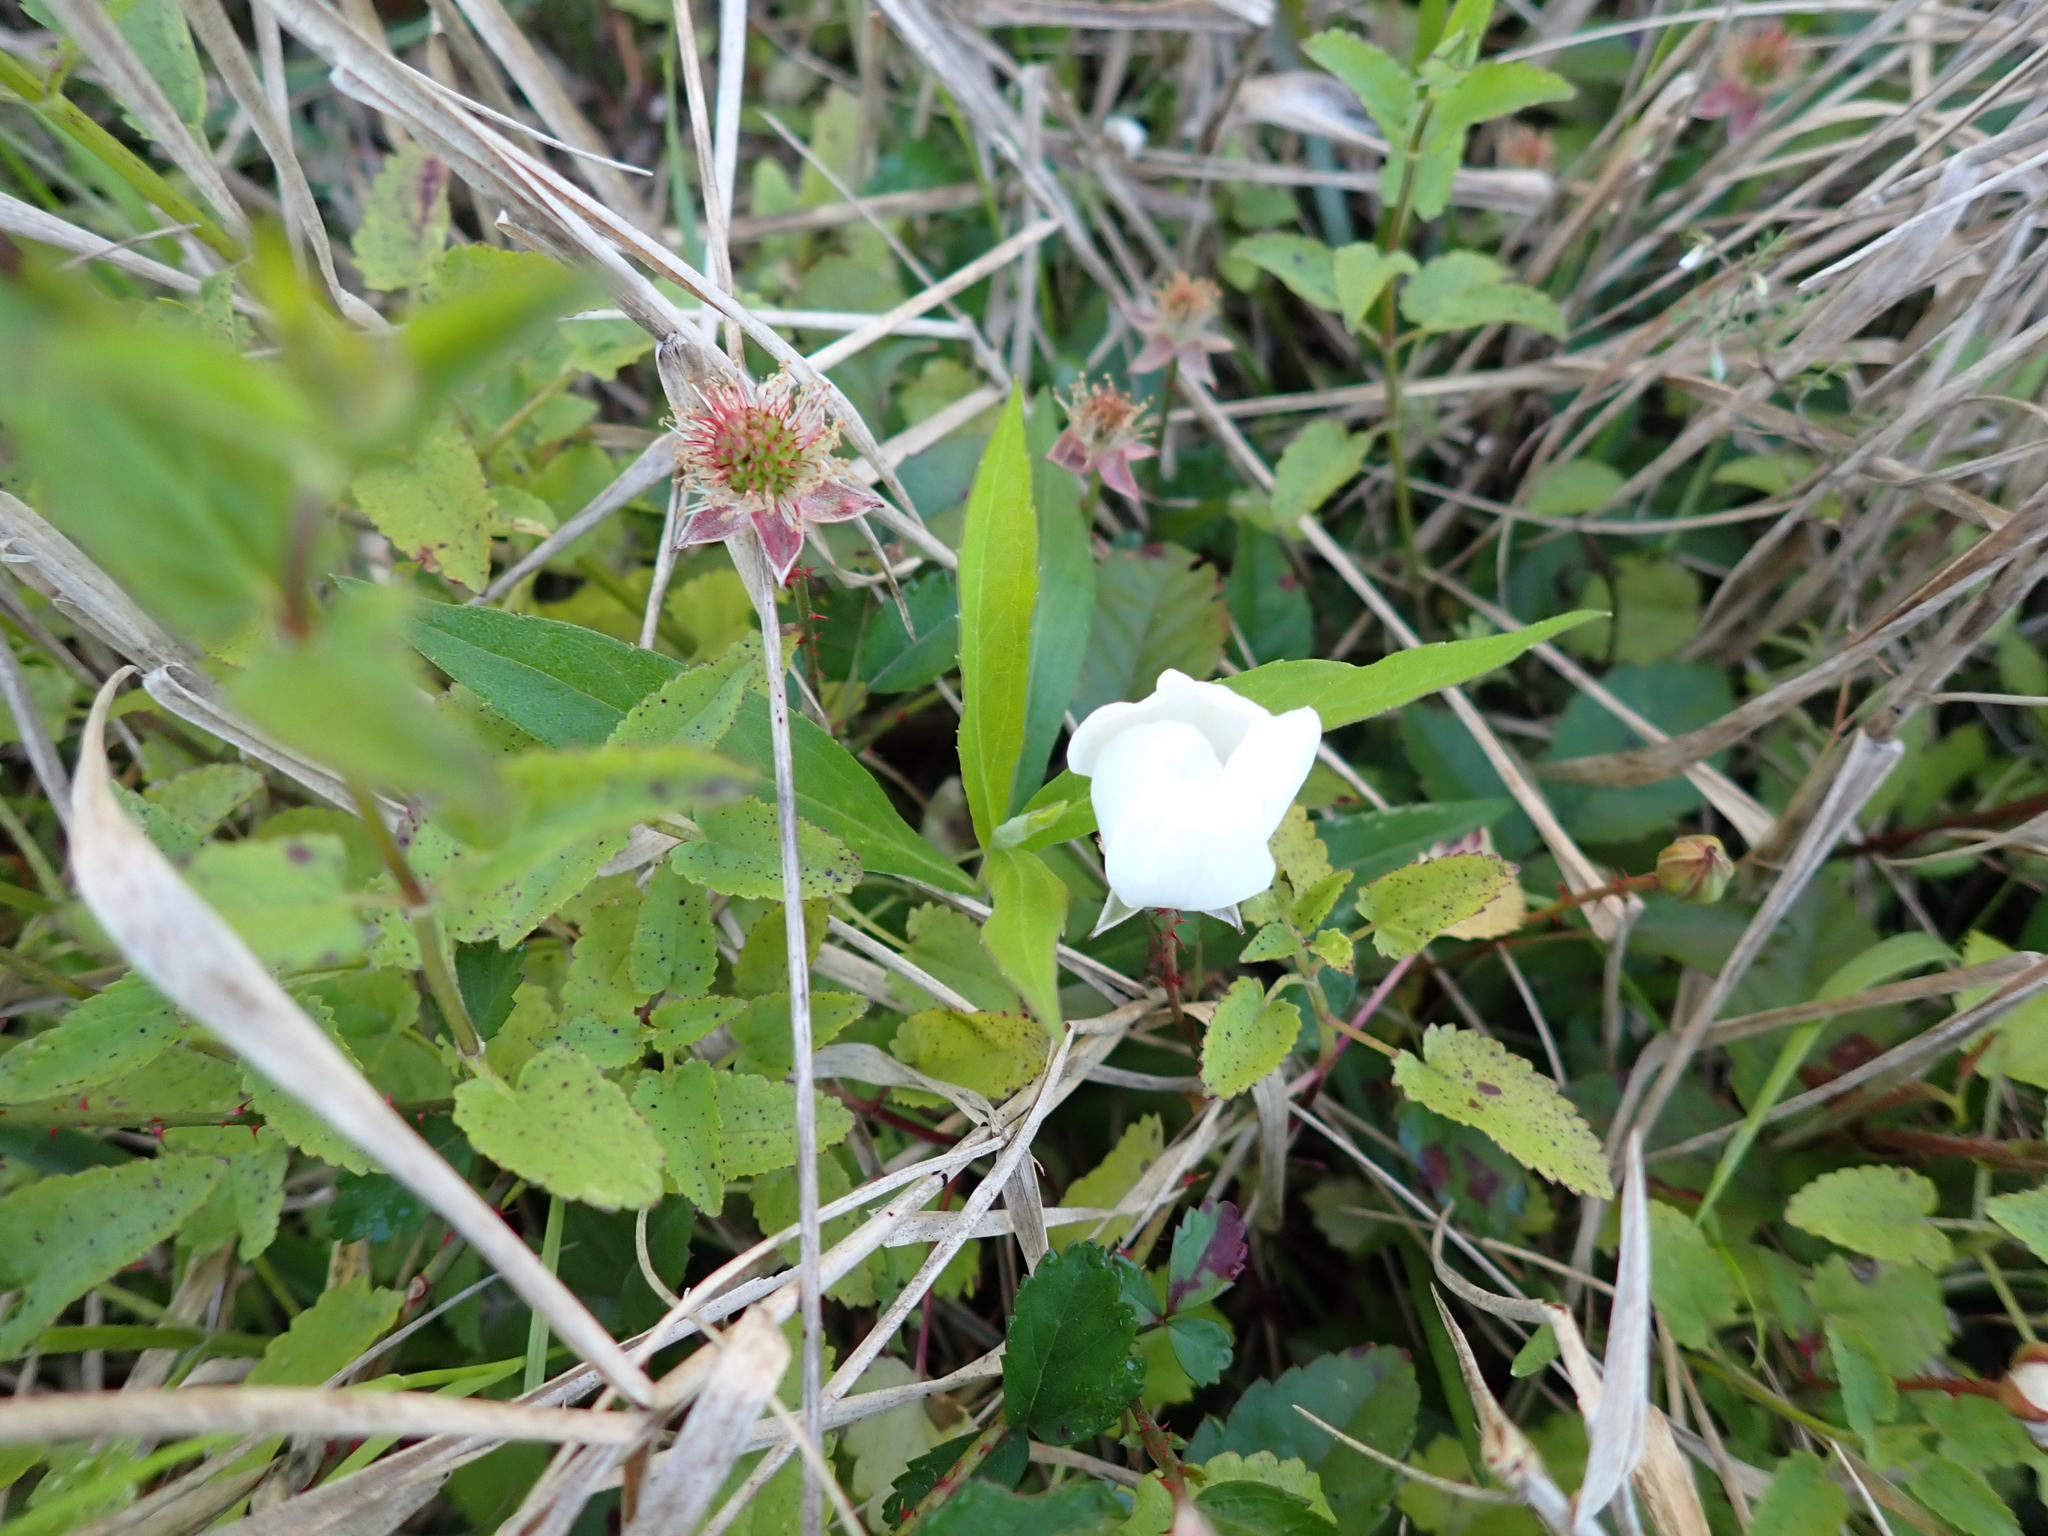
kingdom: Plantae
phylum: Tracheophyta
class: Magnoliopsida
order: Rosales
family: Rosaceae
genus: Rubus
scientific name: Rubus trivialis
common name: Southern dewberry
